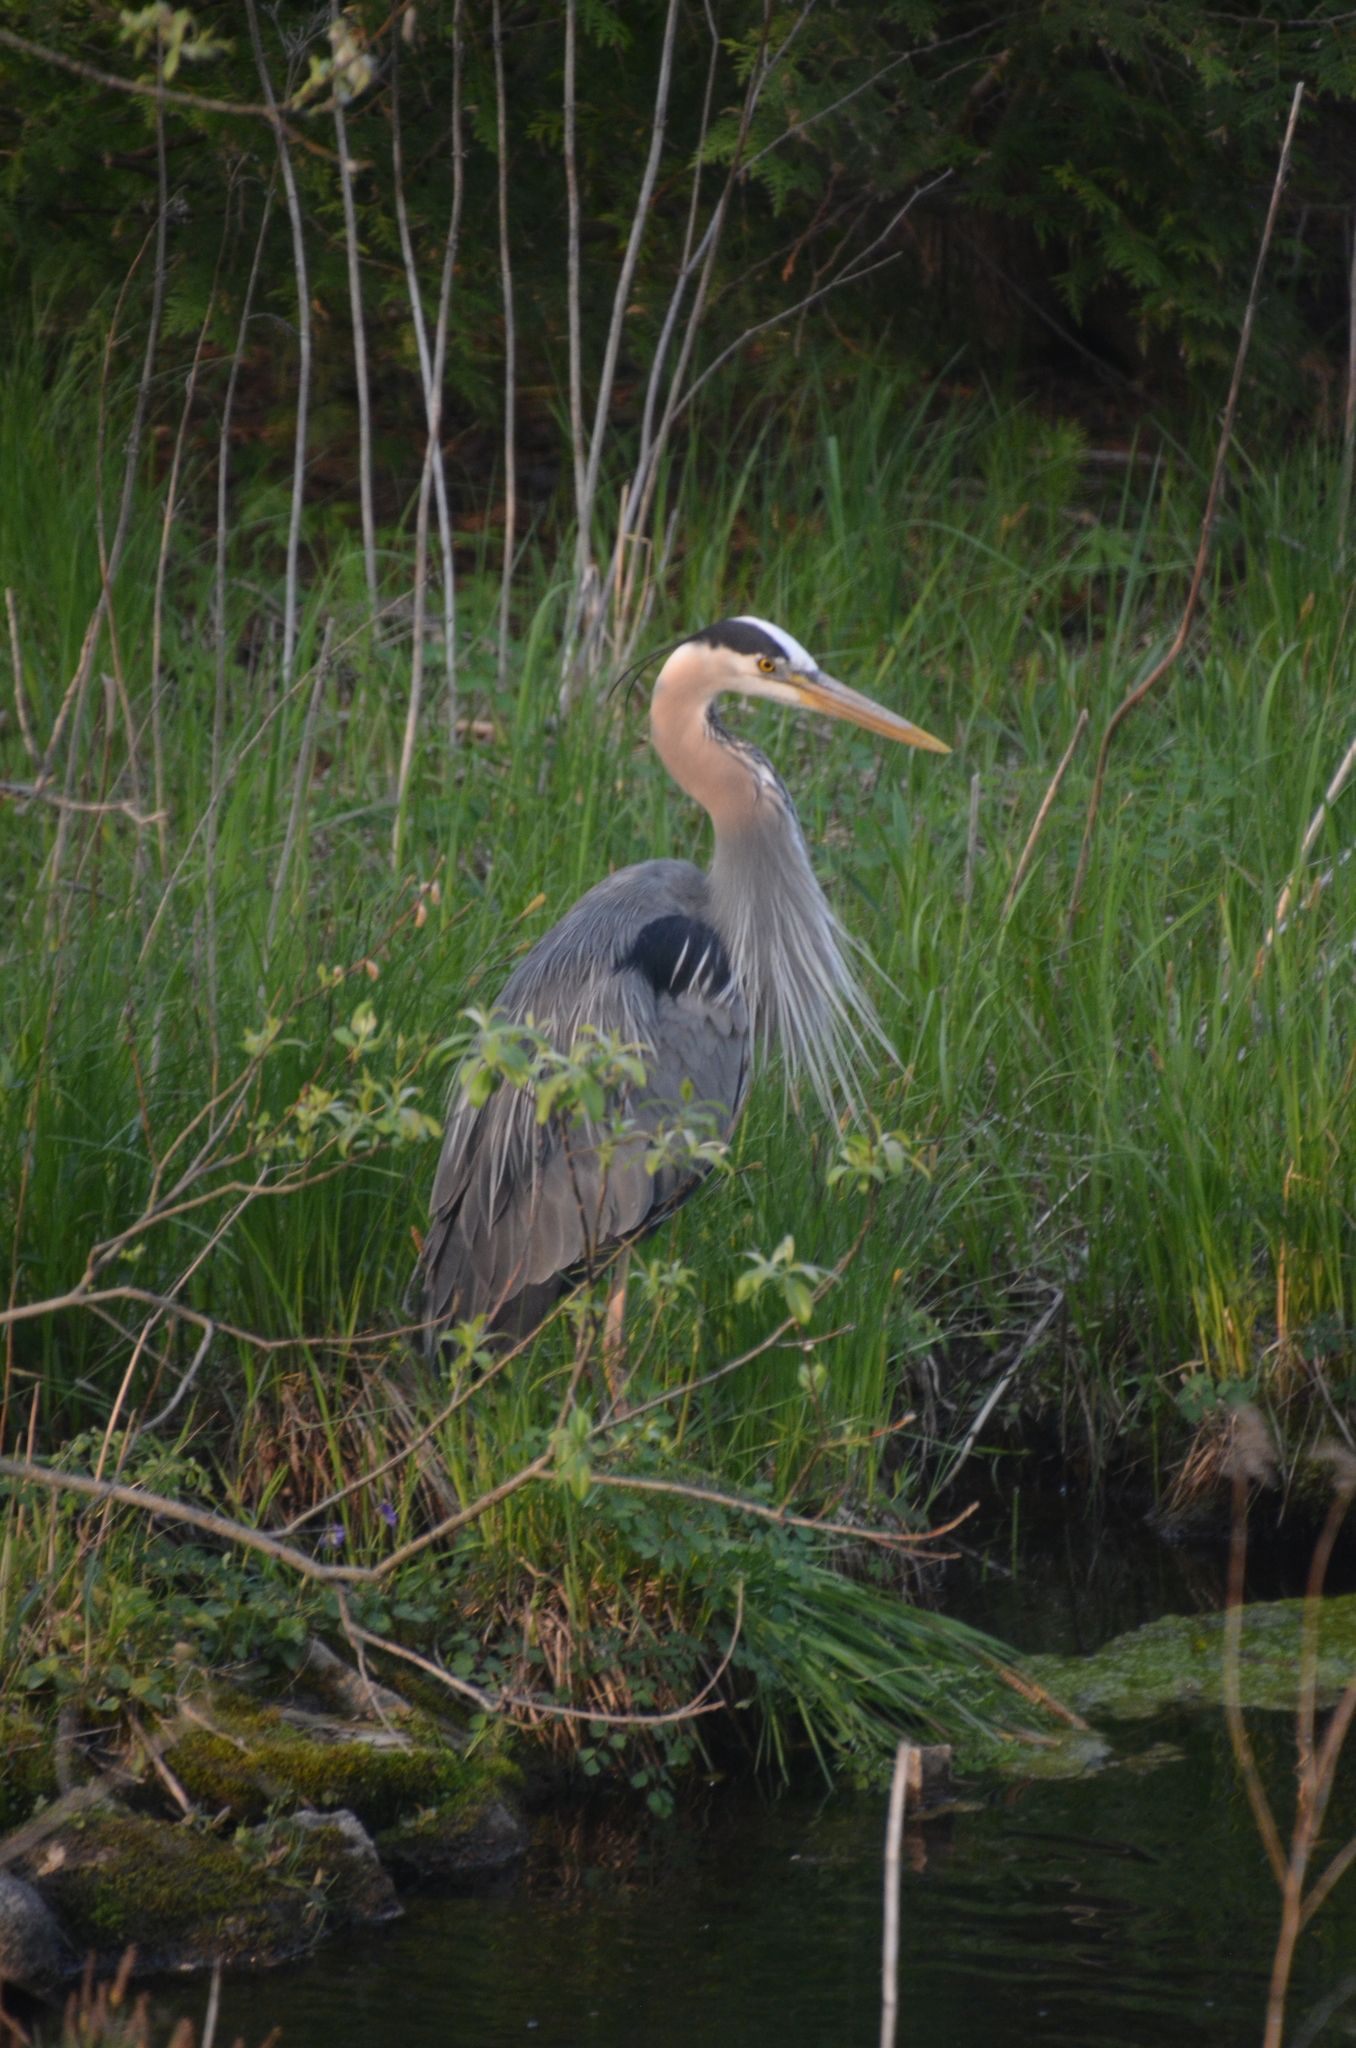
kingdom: Animalia
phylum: Chordata
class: Aves
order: Pelecaniformes
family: Ardeidae
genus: Ardea
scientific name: Ardea herodias
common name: Great blue heron
